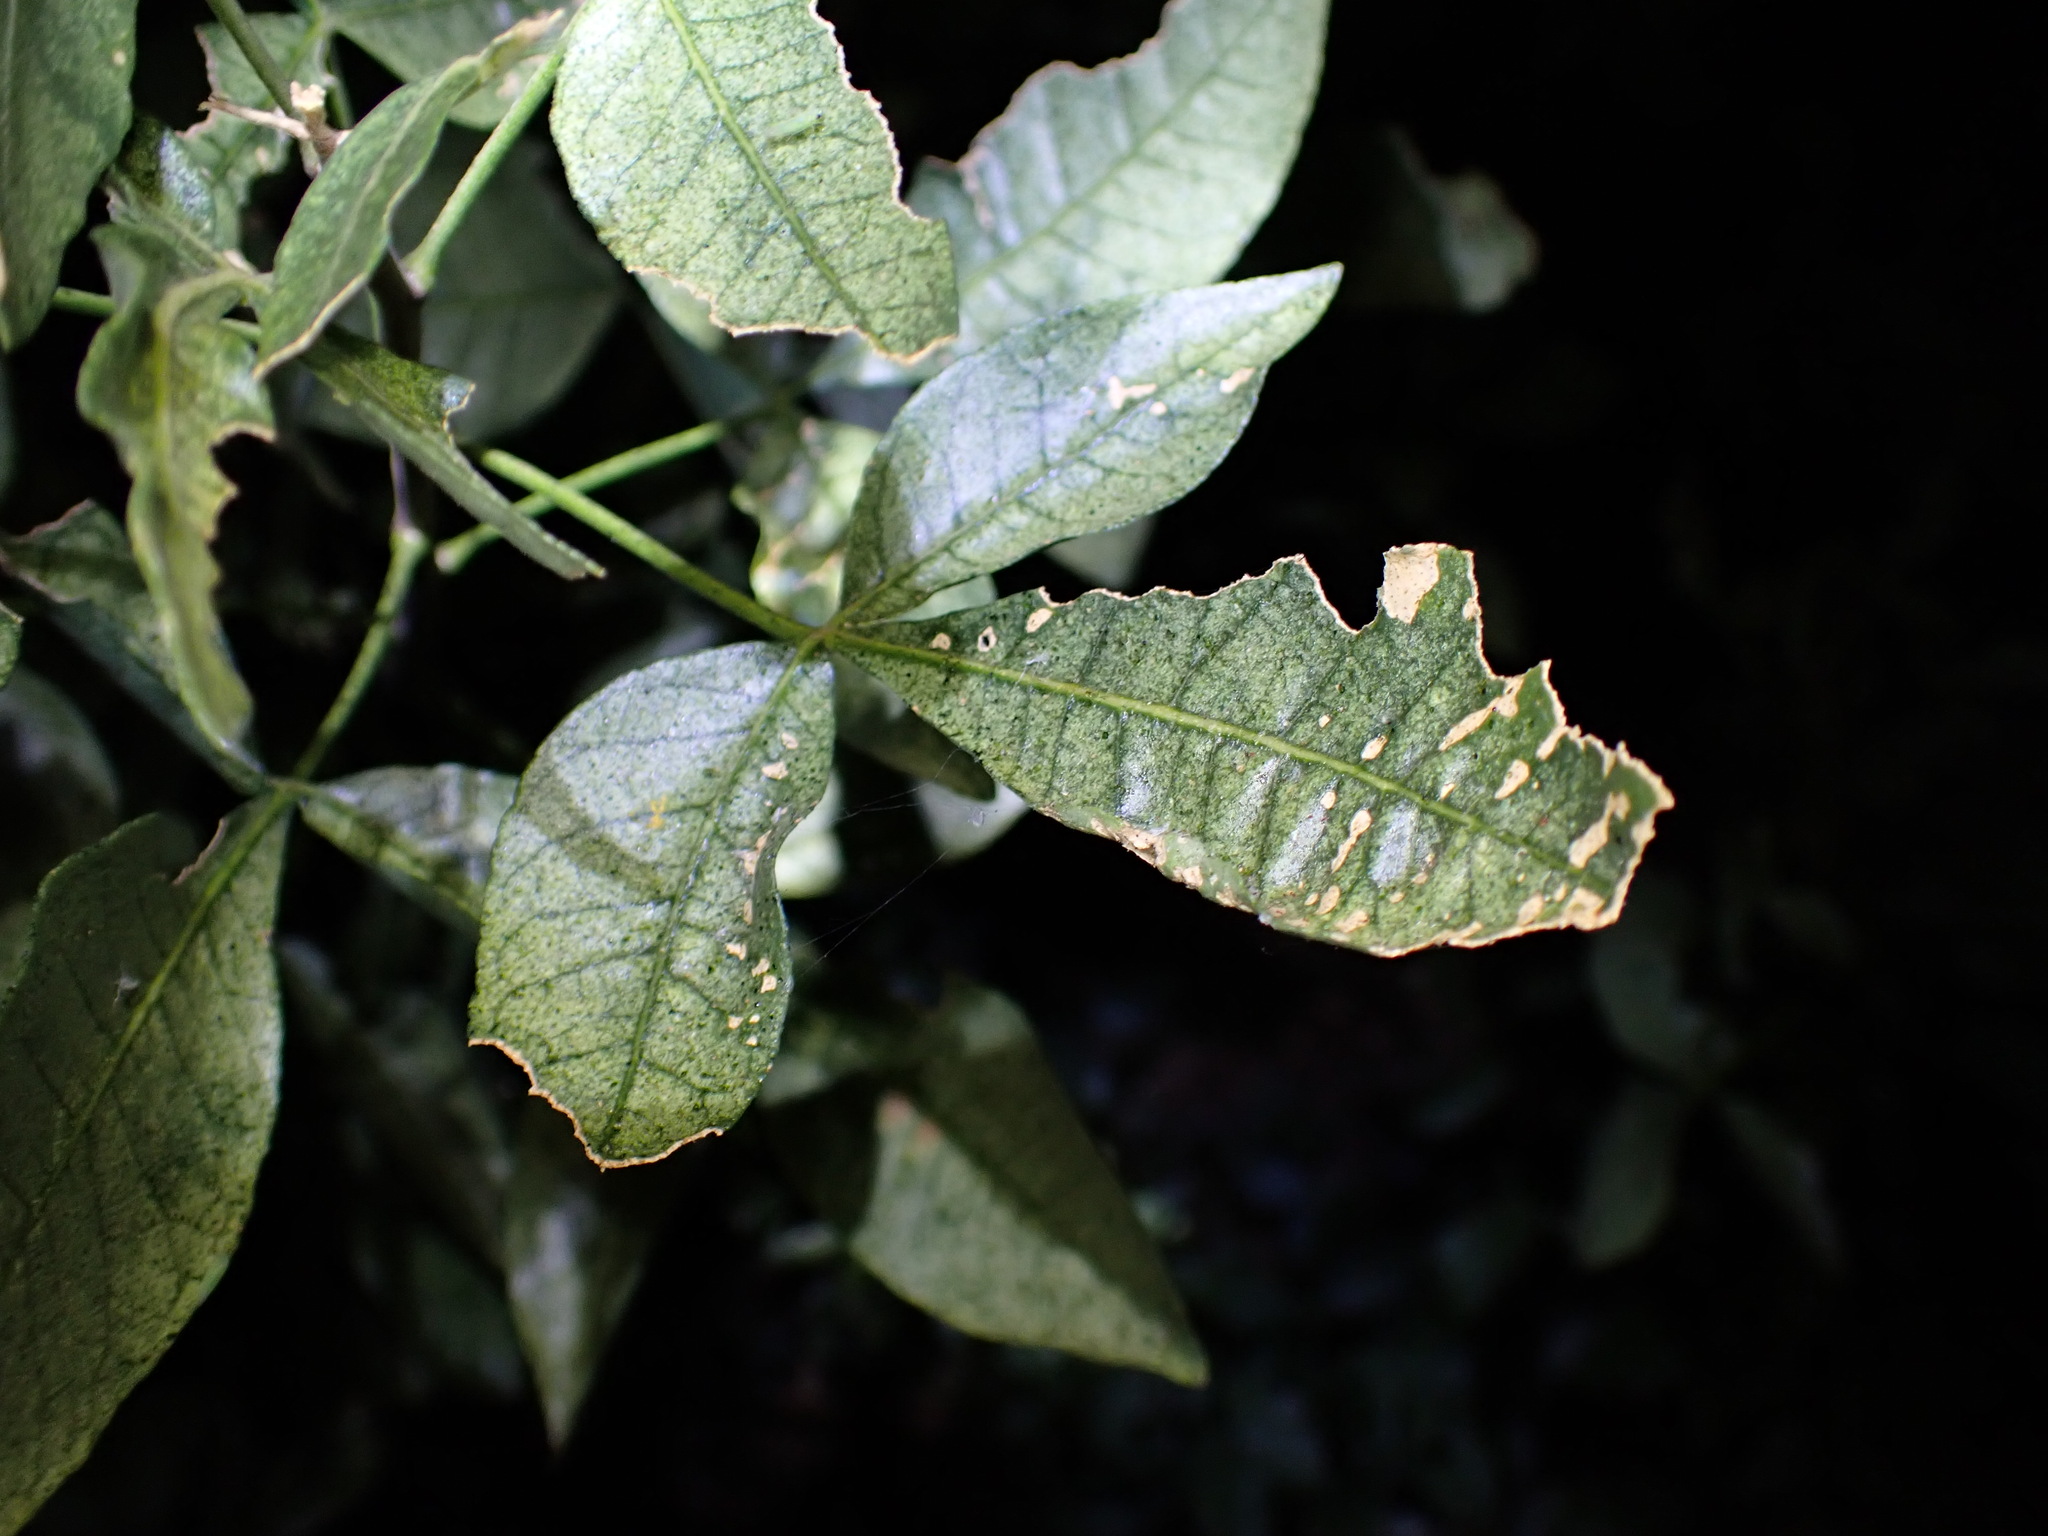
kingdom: Plantae
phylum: Tracheophyta
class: Magnoliopsida
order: Sapindales
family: Rutaceae
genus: Ptelea
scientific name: Ptelea crenulata
